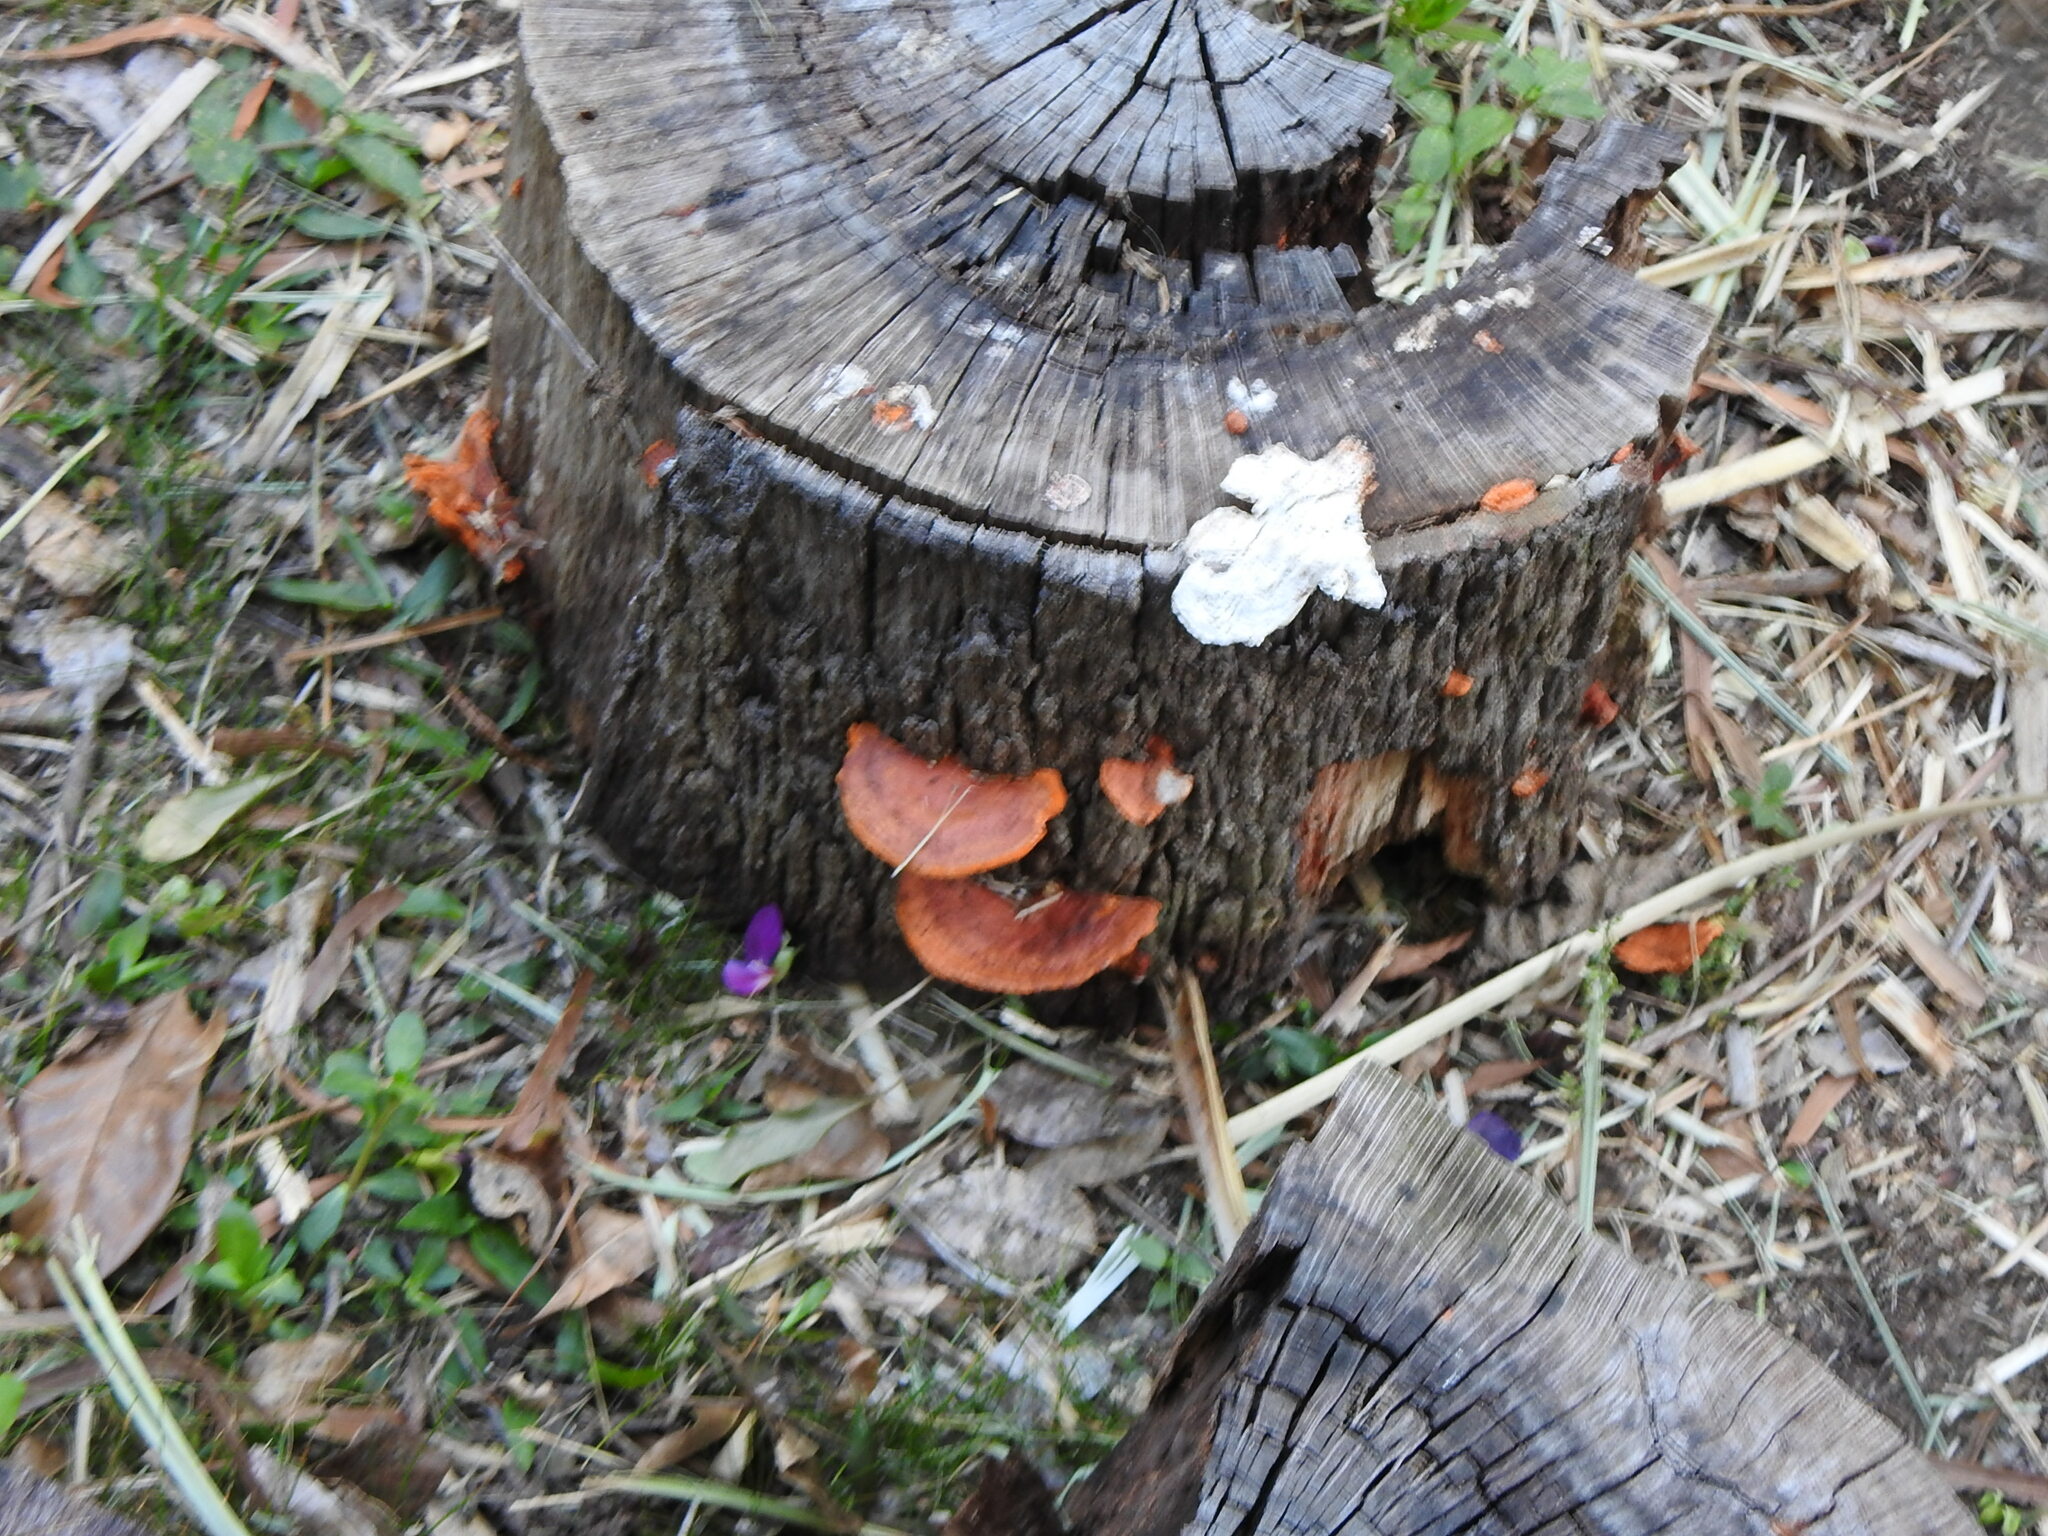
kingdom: Fungi
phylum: Basidiomycota
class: Agaricomycetes
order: Polyporales
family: Polyporaceae
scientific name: Polyporaceae
